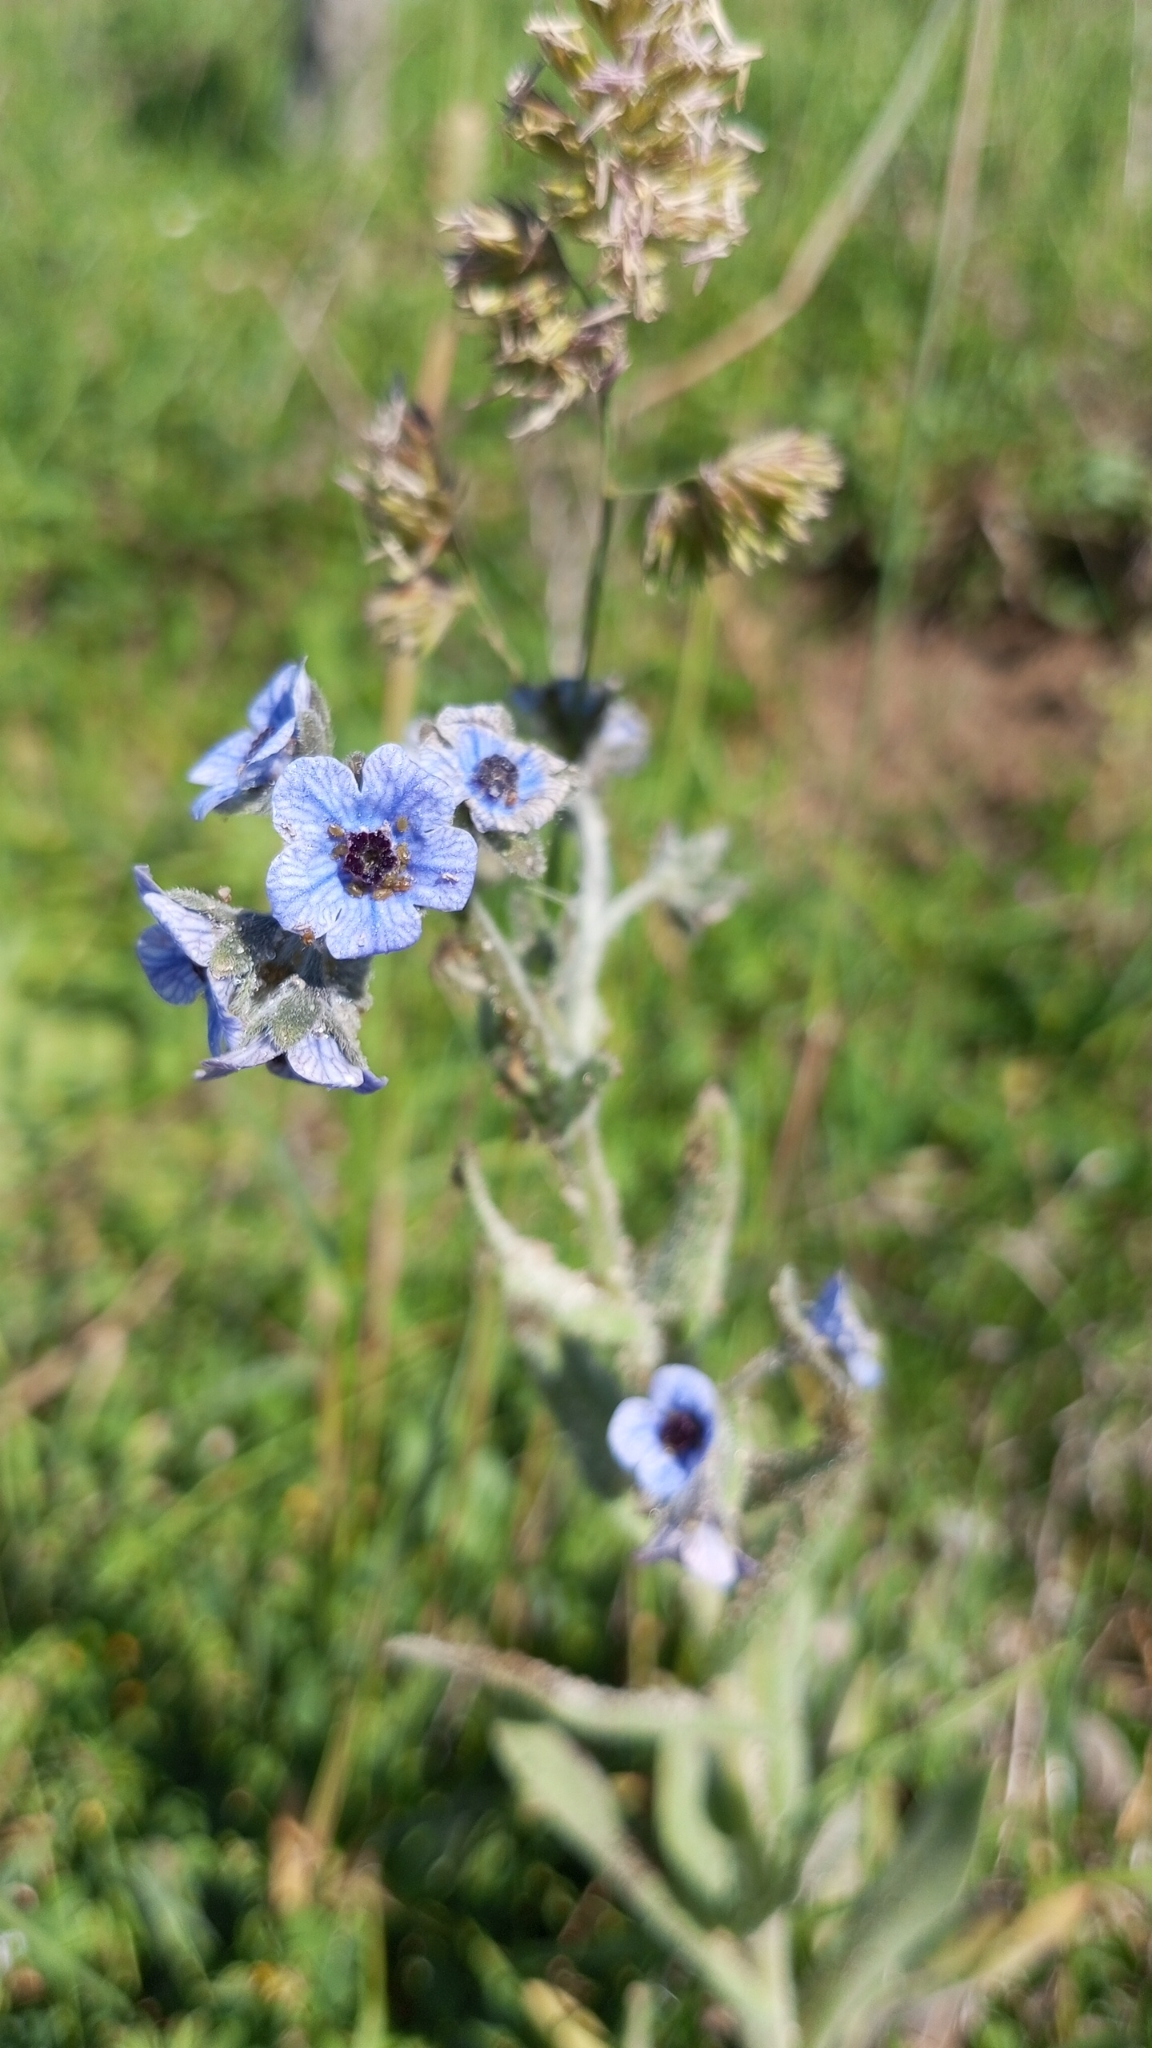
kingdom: Plantae
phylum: Tracheophyta
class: Magnoliopsida
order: Boraginales
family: Boraginaceae
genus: Cynoglossum
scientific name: Cynoglossum creticum
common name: Blue hound's tongue
